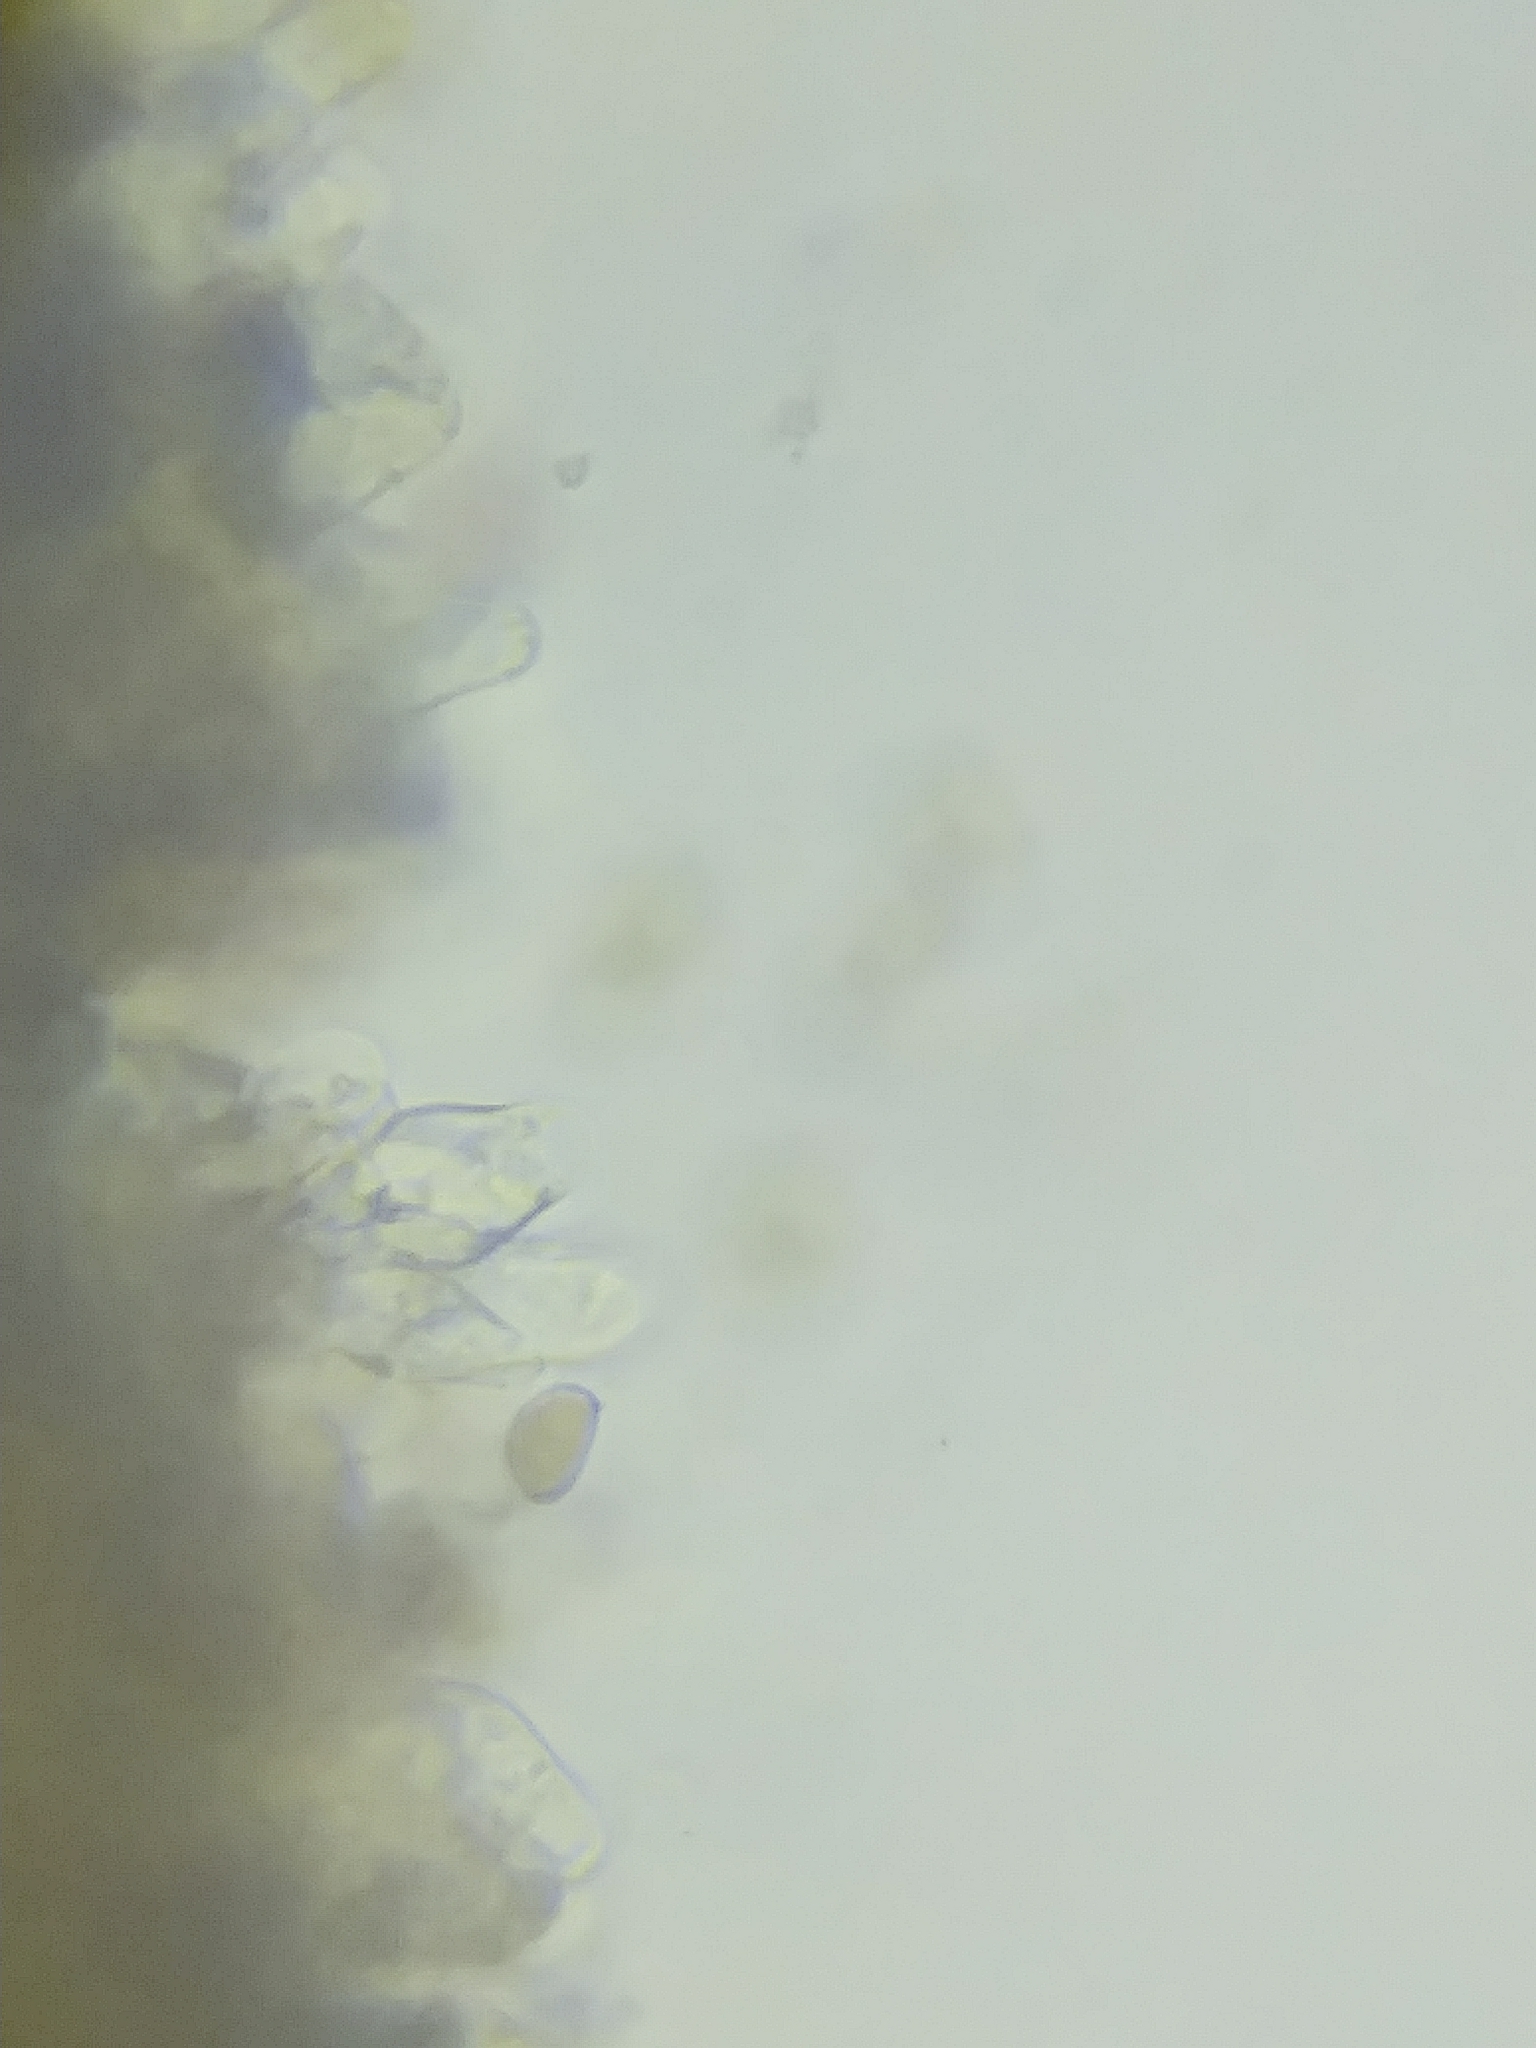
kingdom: Fungi
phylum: Basidiomycota
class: Agaricomycetes
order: Agaricales
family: Inocybaceae
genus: Pseudosperma
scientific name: Pseudosperma rimosum
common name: Split fibrecap
